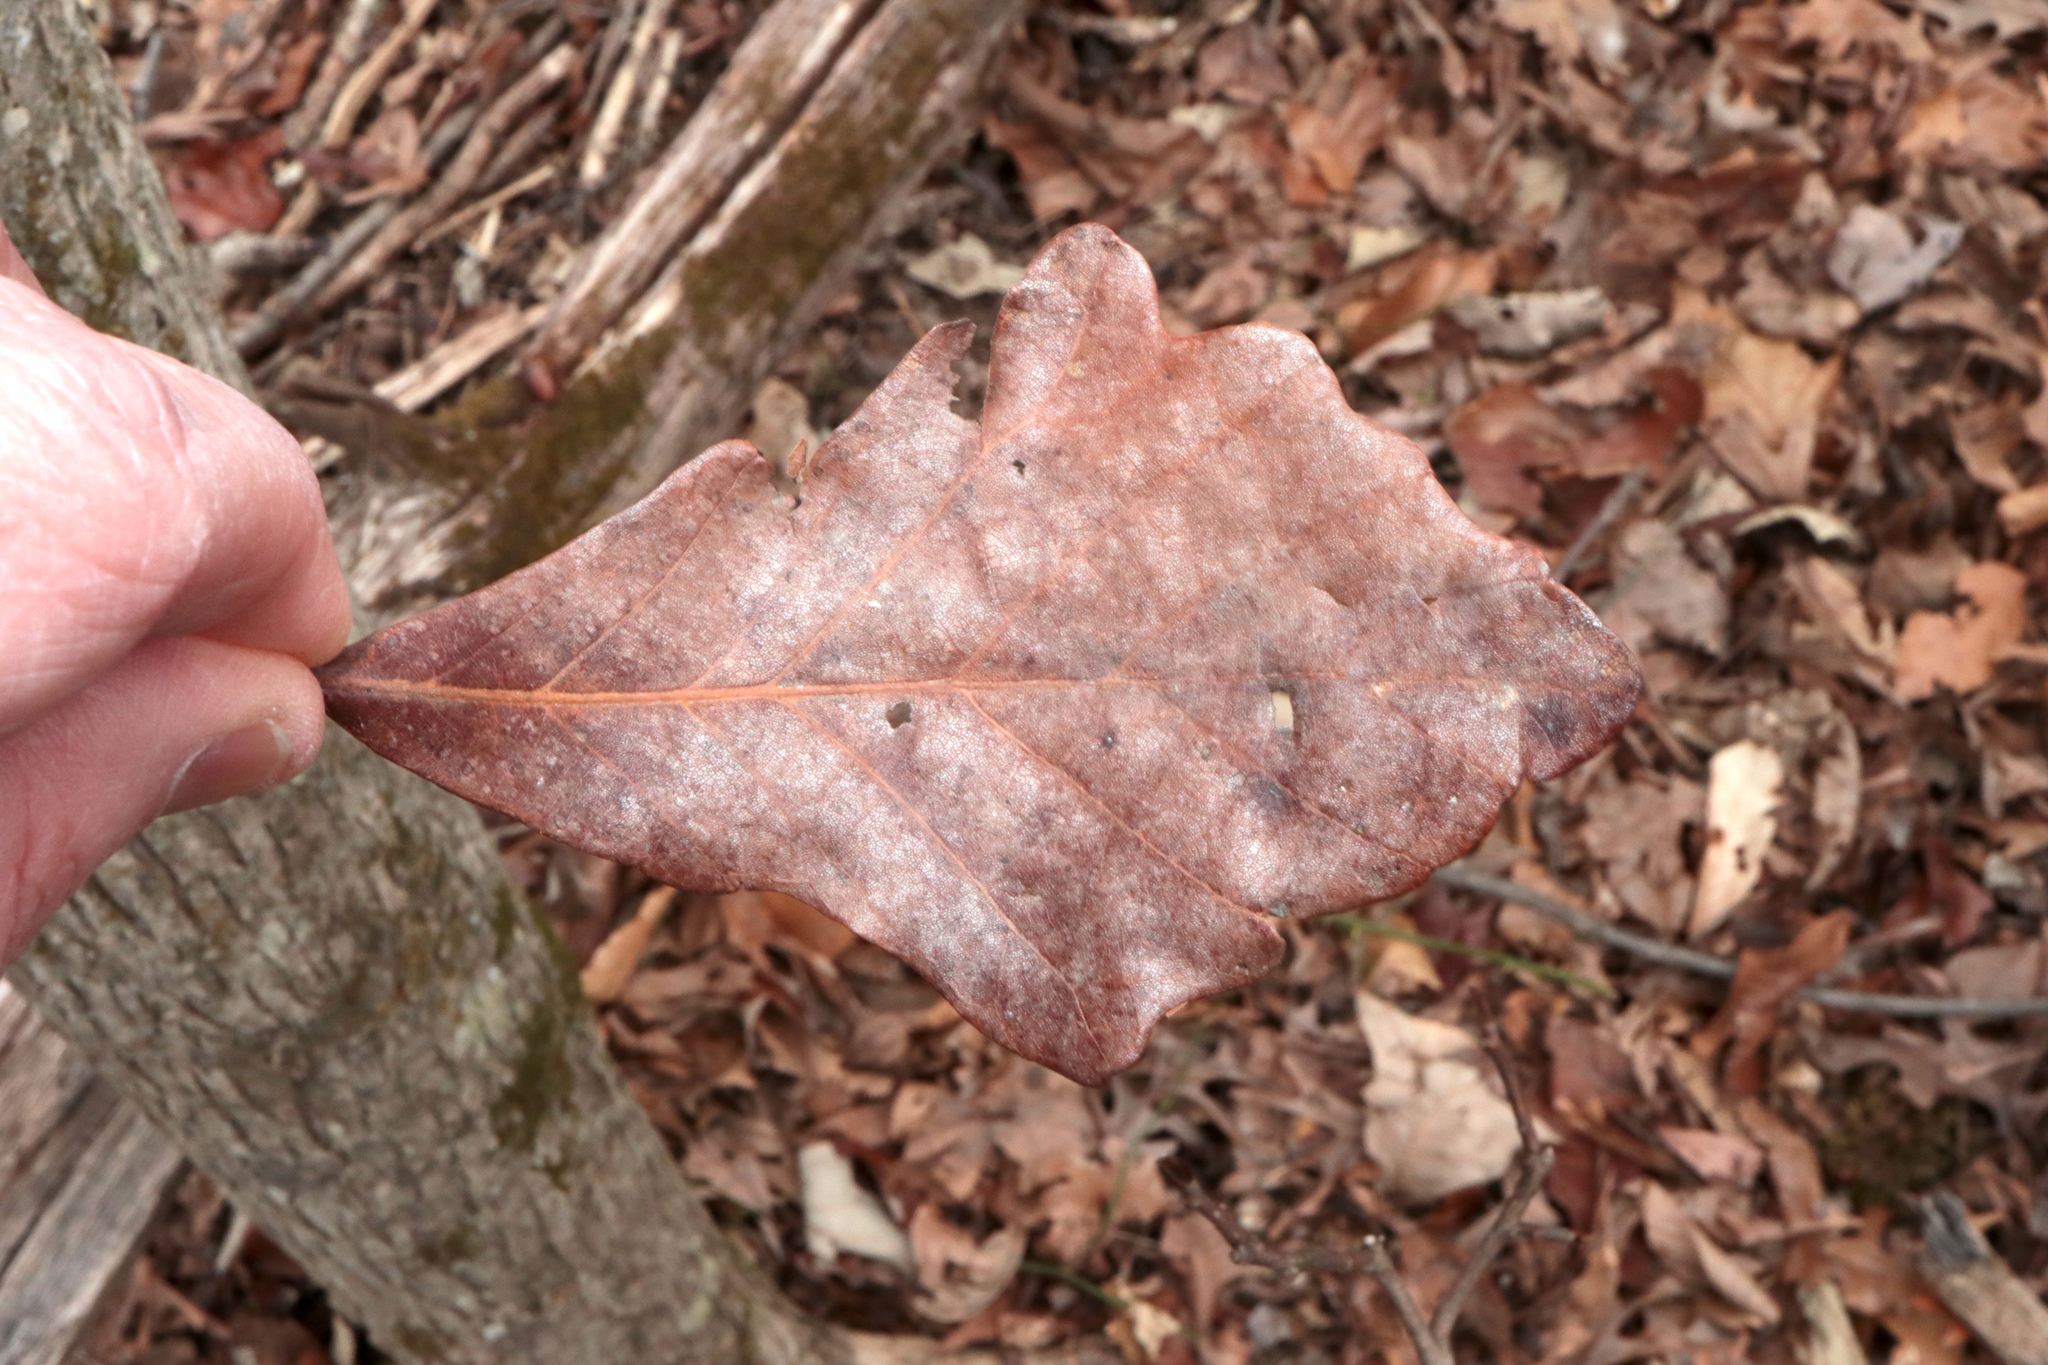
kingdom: Plantae
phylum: Tracheophyta
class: Magnoliopsida
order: Fagales
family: Fagaceae
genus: Quercus
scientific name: Quercus bicolor
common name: Swamp white oak
